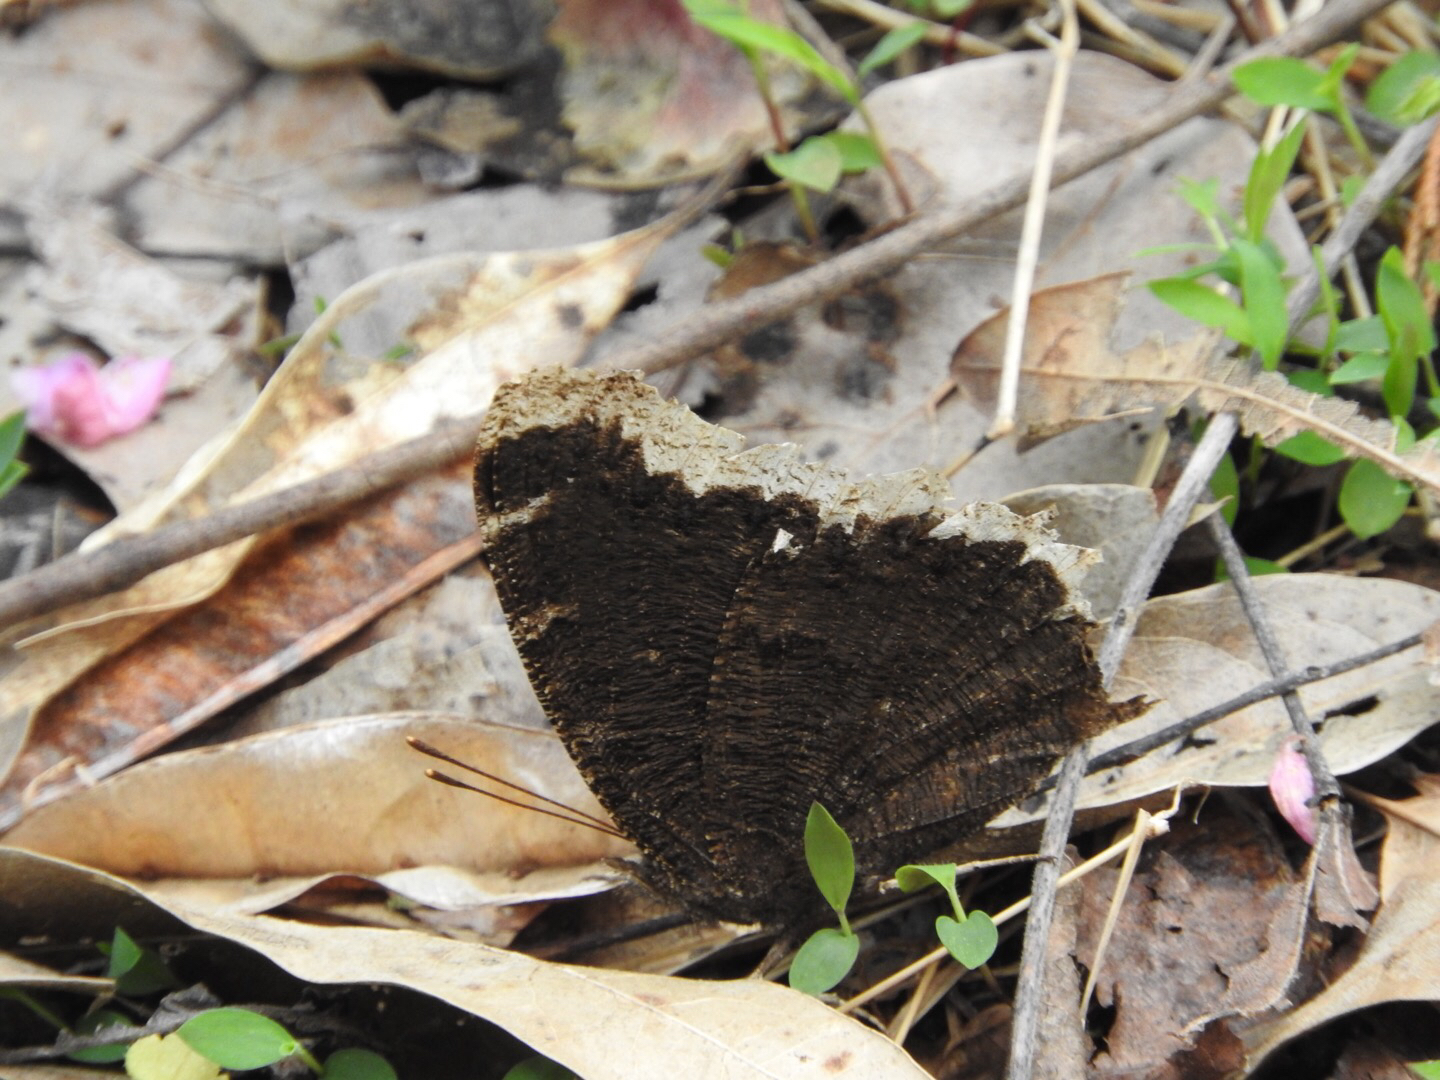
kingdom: Animalia
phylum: Arthropoda
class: Insecta
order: Lepidoptera
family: Nymphalidae
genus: Nymphalis
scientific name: Nymphalis antiopa
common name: Camberwell beauty
